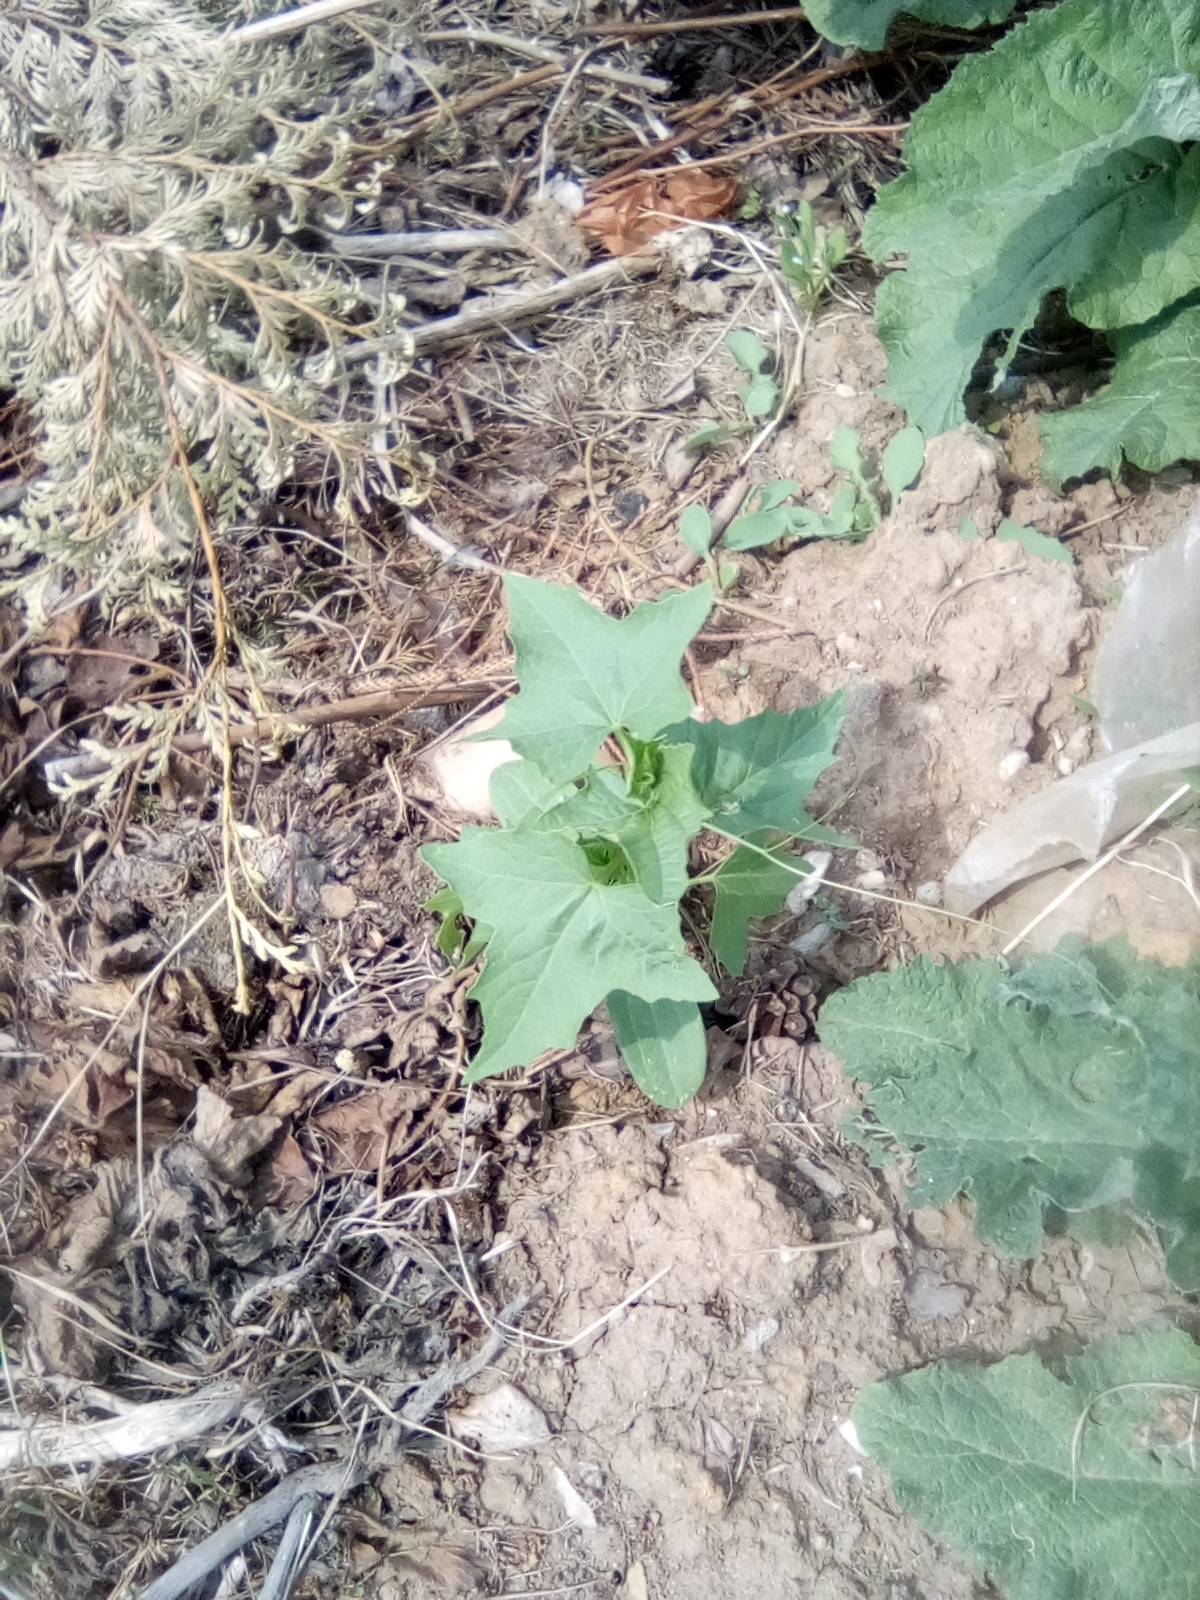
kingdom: Plantae
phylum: Tracheophyta
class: Magnoliopsida
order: Cucurbitales
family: Cucurbitaceae
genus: Echinocystis
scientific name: Echinocystis lobata
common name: Wild cucumber
